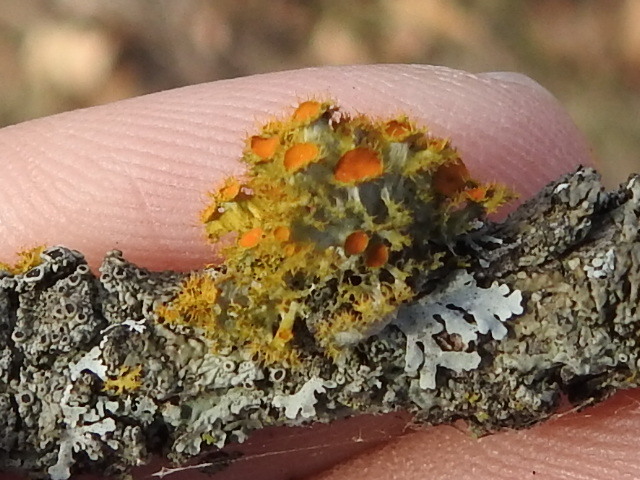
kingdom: Fungi
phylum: Ascomycota
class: Lecanoromycetes
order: Teloschistales
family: Teloschistaceae
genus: Niorma
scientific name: Niorma chrysophthalma
